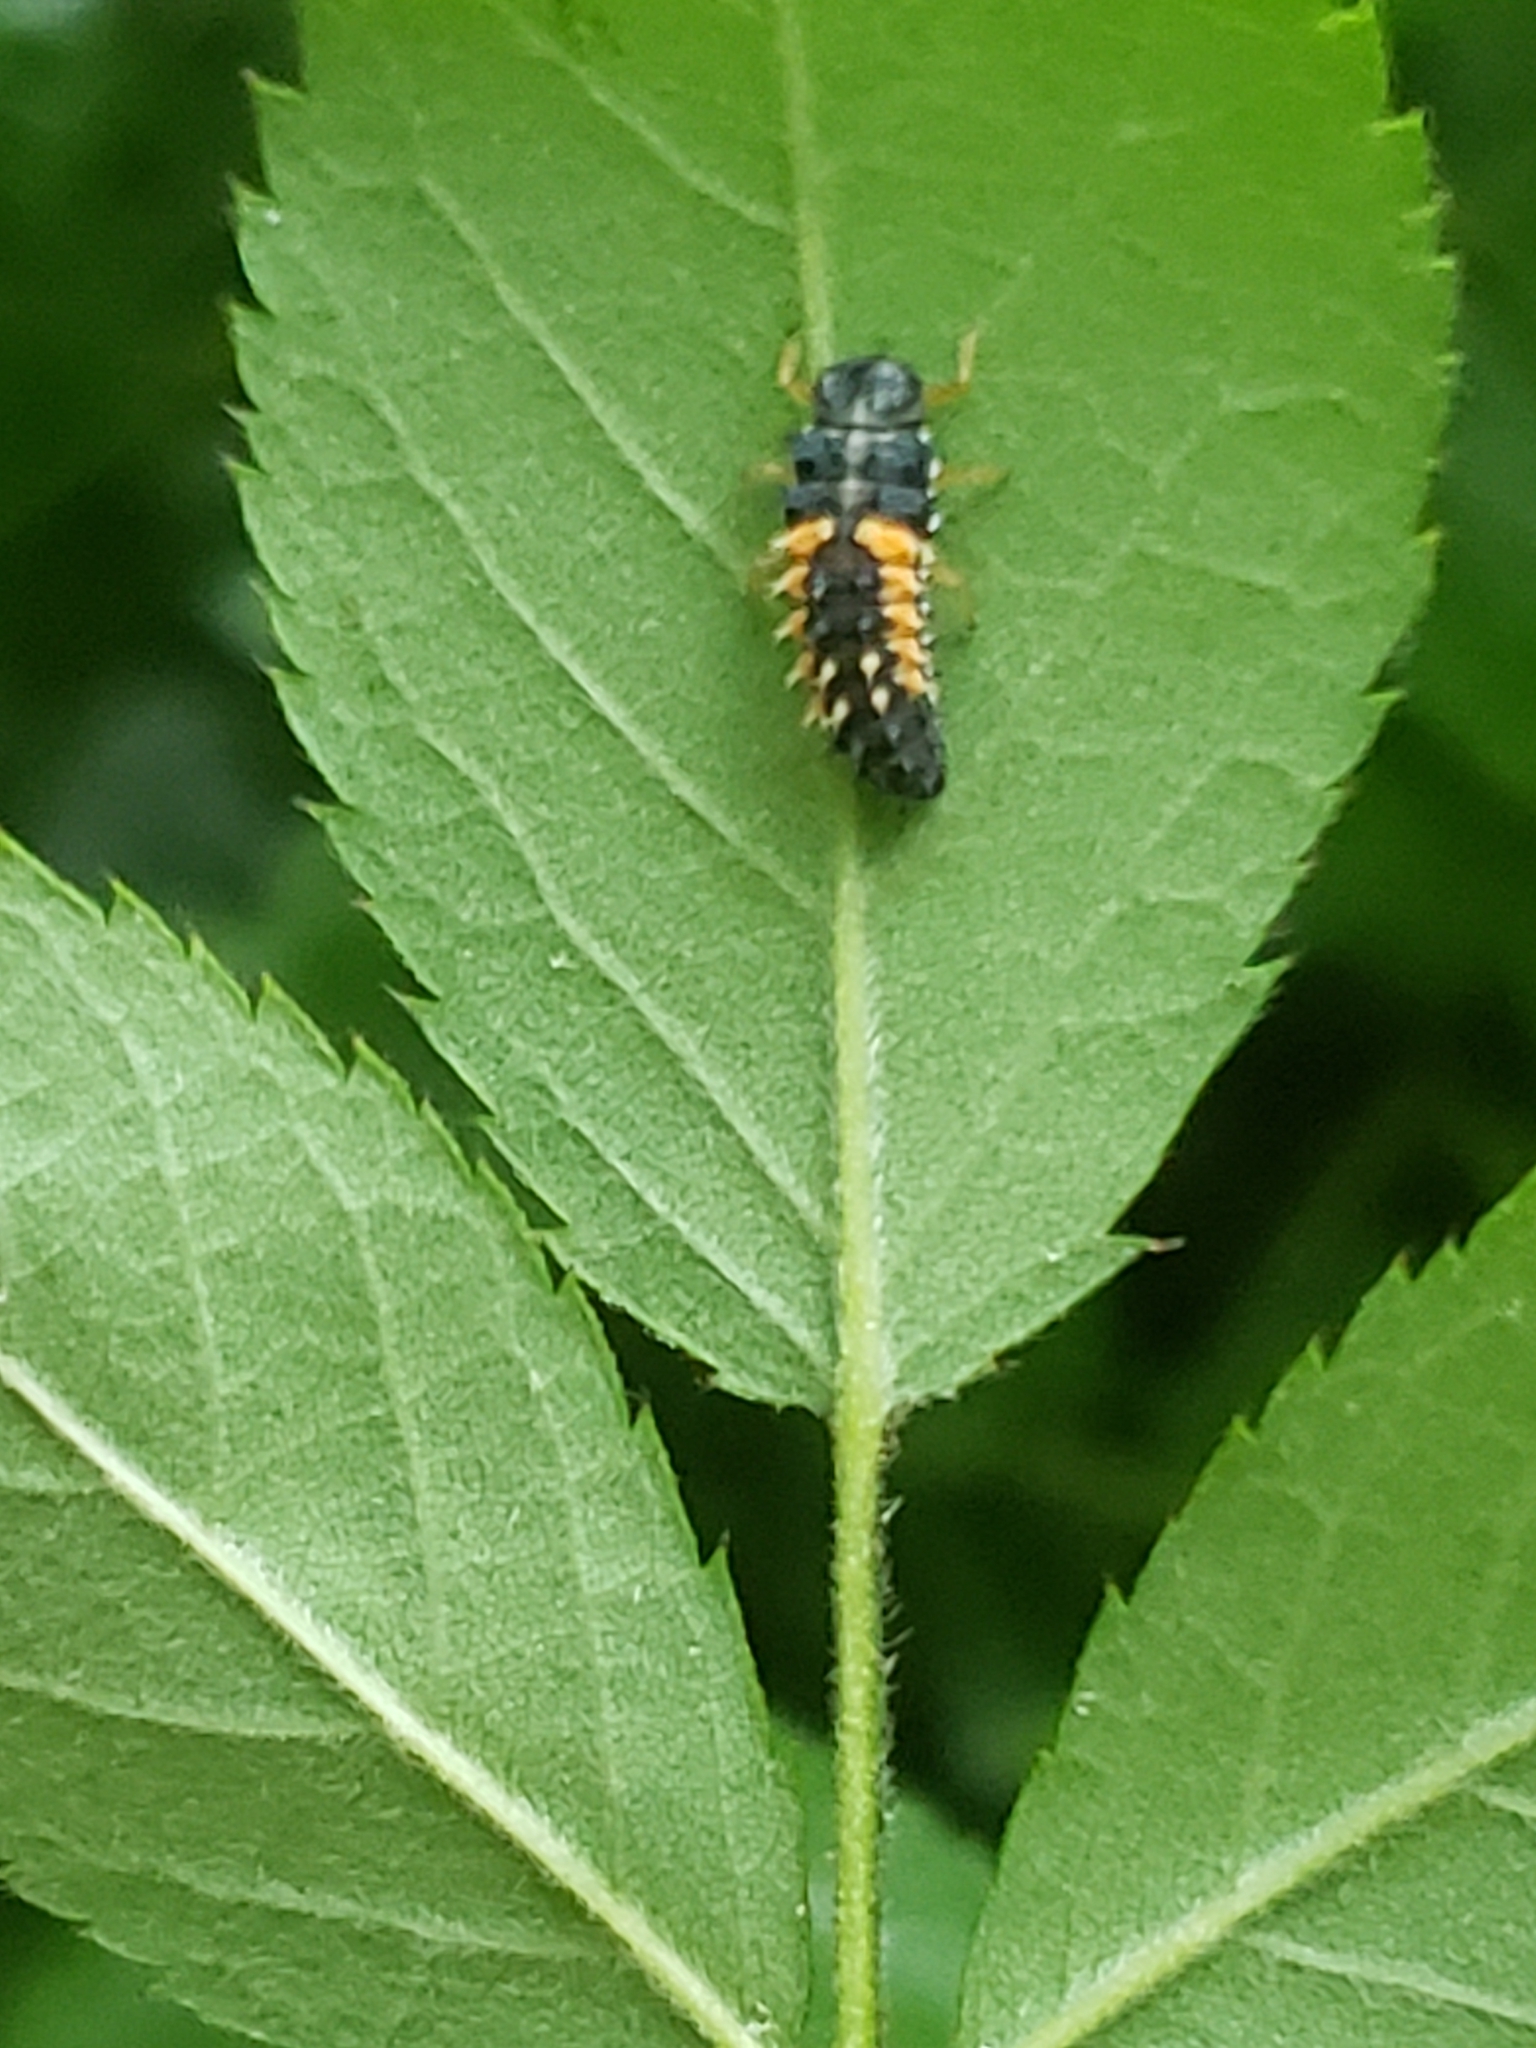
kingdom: Animalia
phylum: Arthropoda
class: Insecta
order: Coleoptera
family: Coccinellidae
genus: Harmonia
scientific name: Harmonia axyridis
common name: Harlequin ladybird
